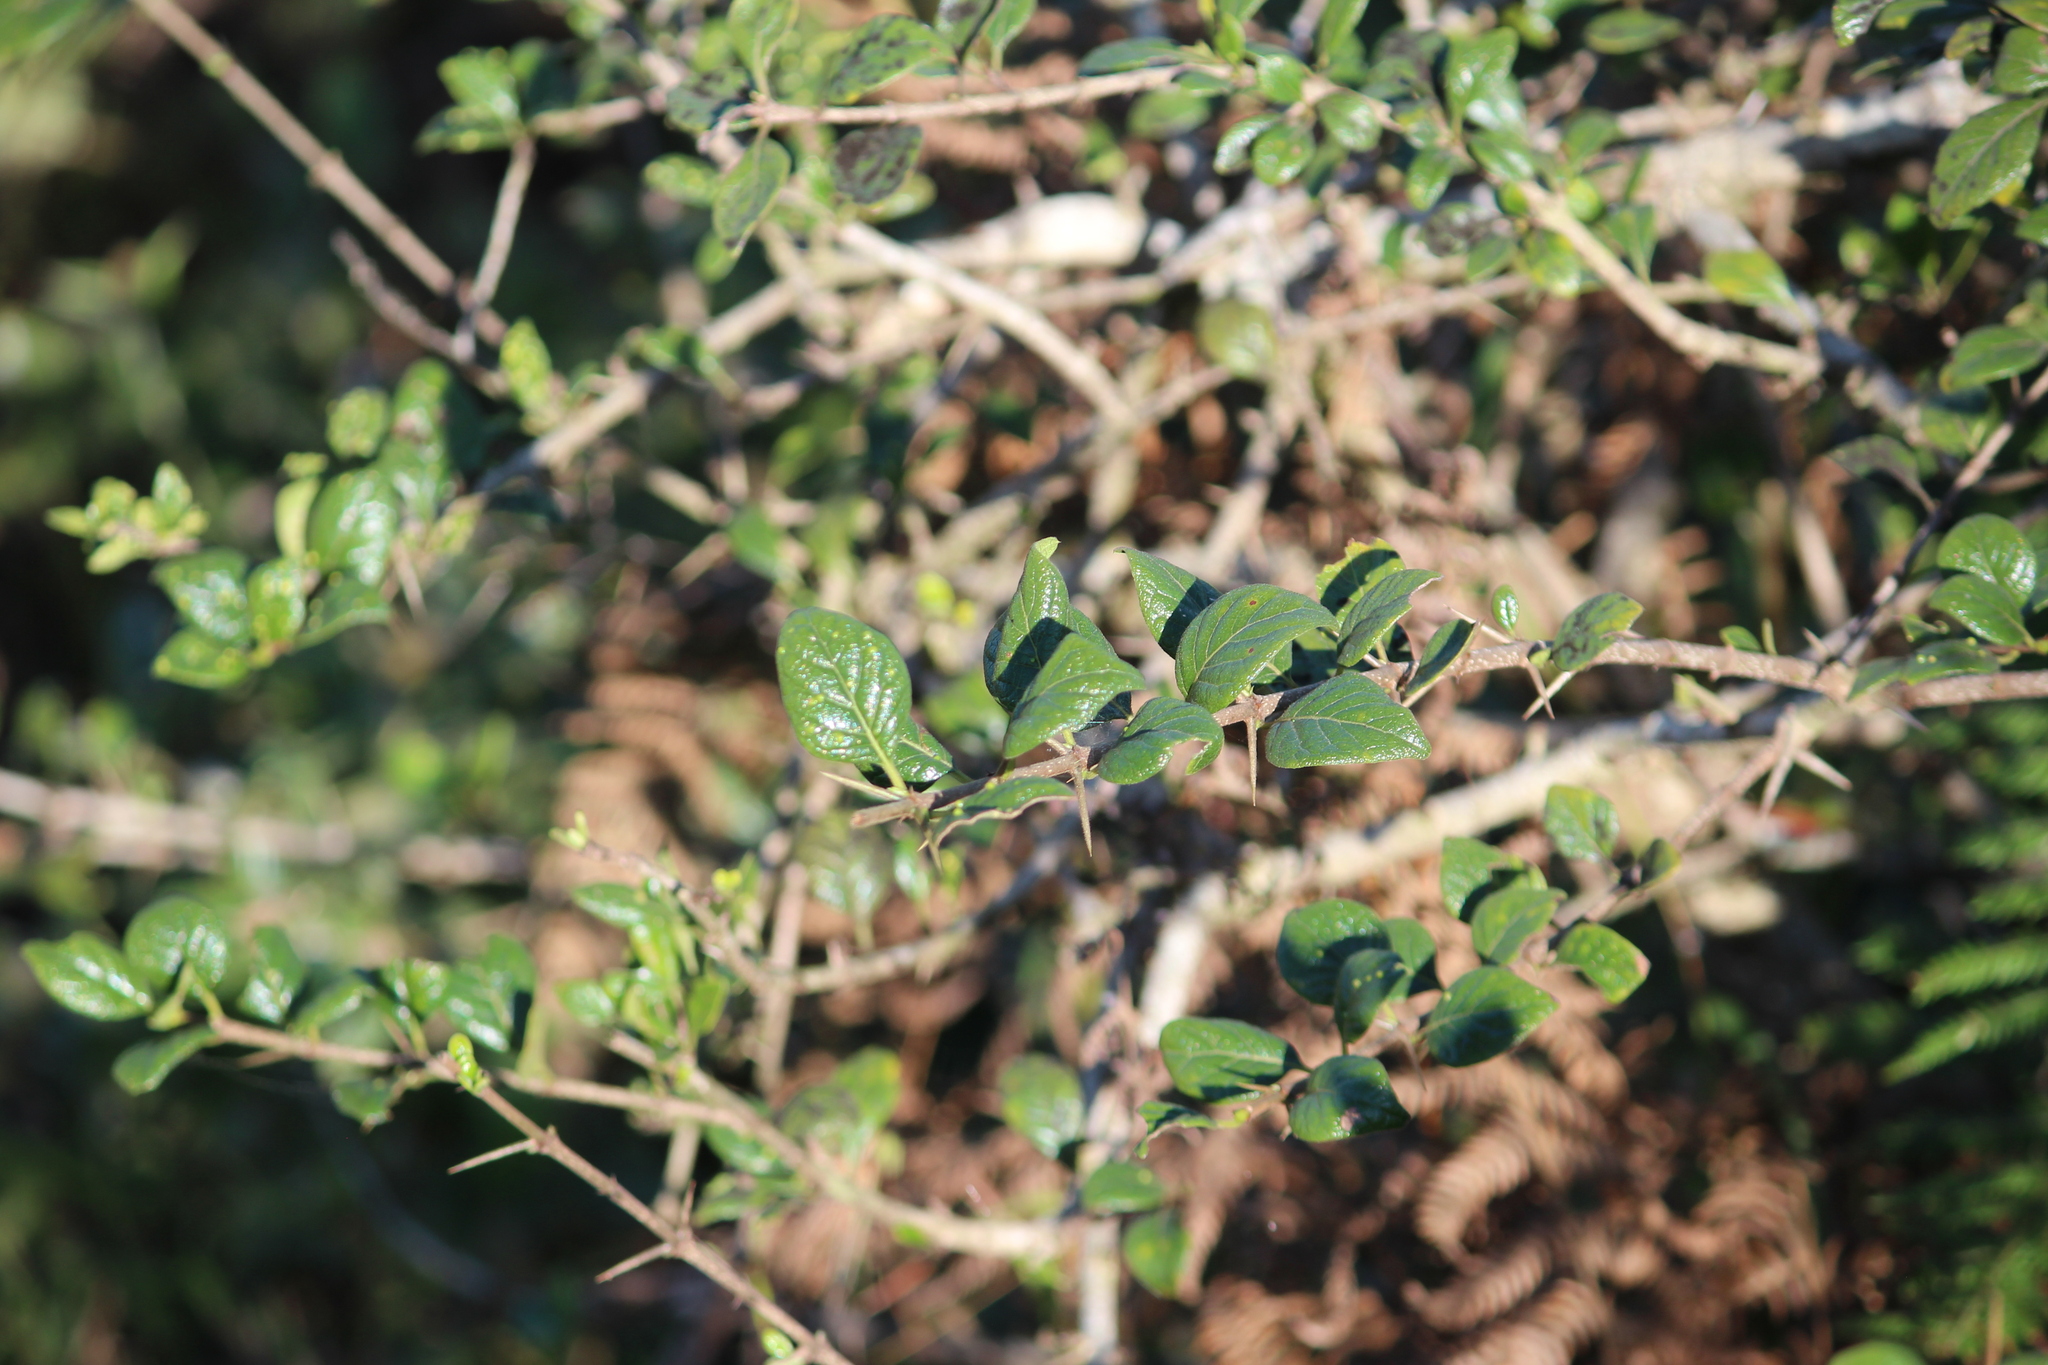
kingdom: Plantae
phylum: Tracheophyta
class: Magnoliopsida
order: Gentianales
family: Rubiaceae
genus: Catunaregam
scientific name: Catunaregam spinosa
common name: Emetic-nut
